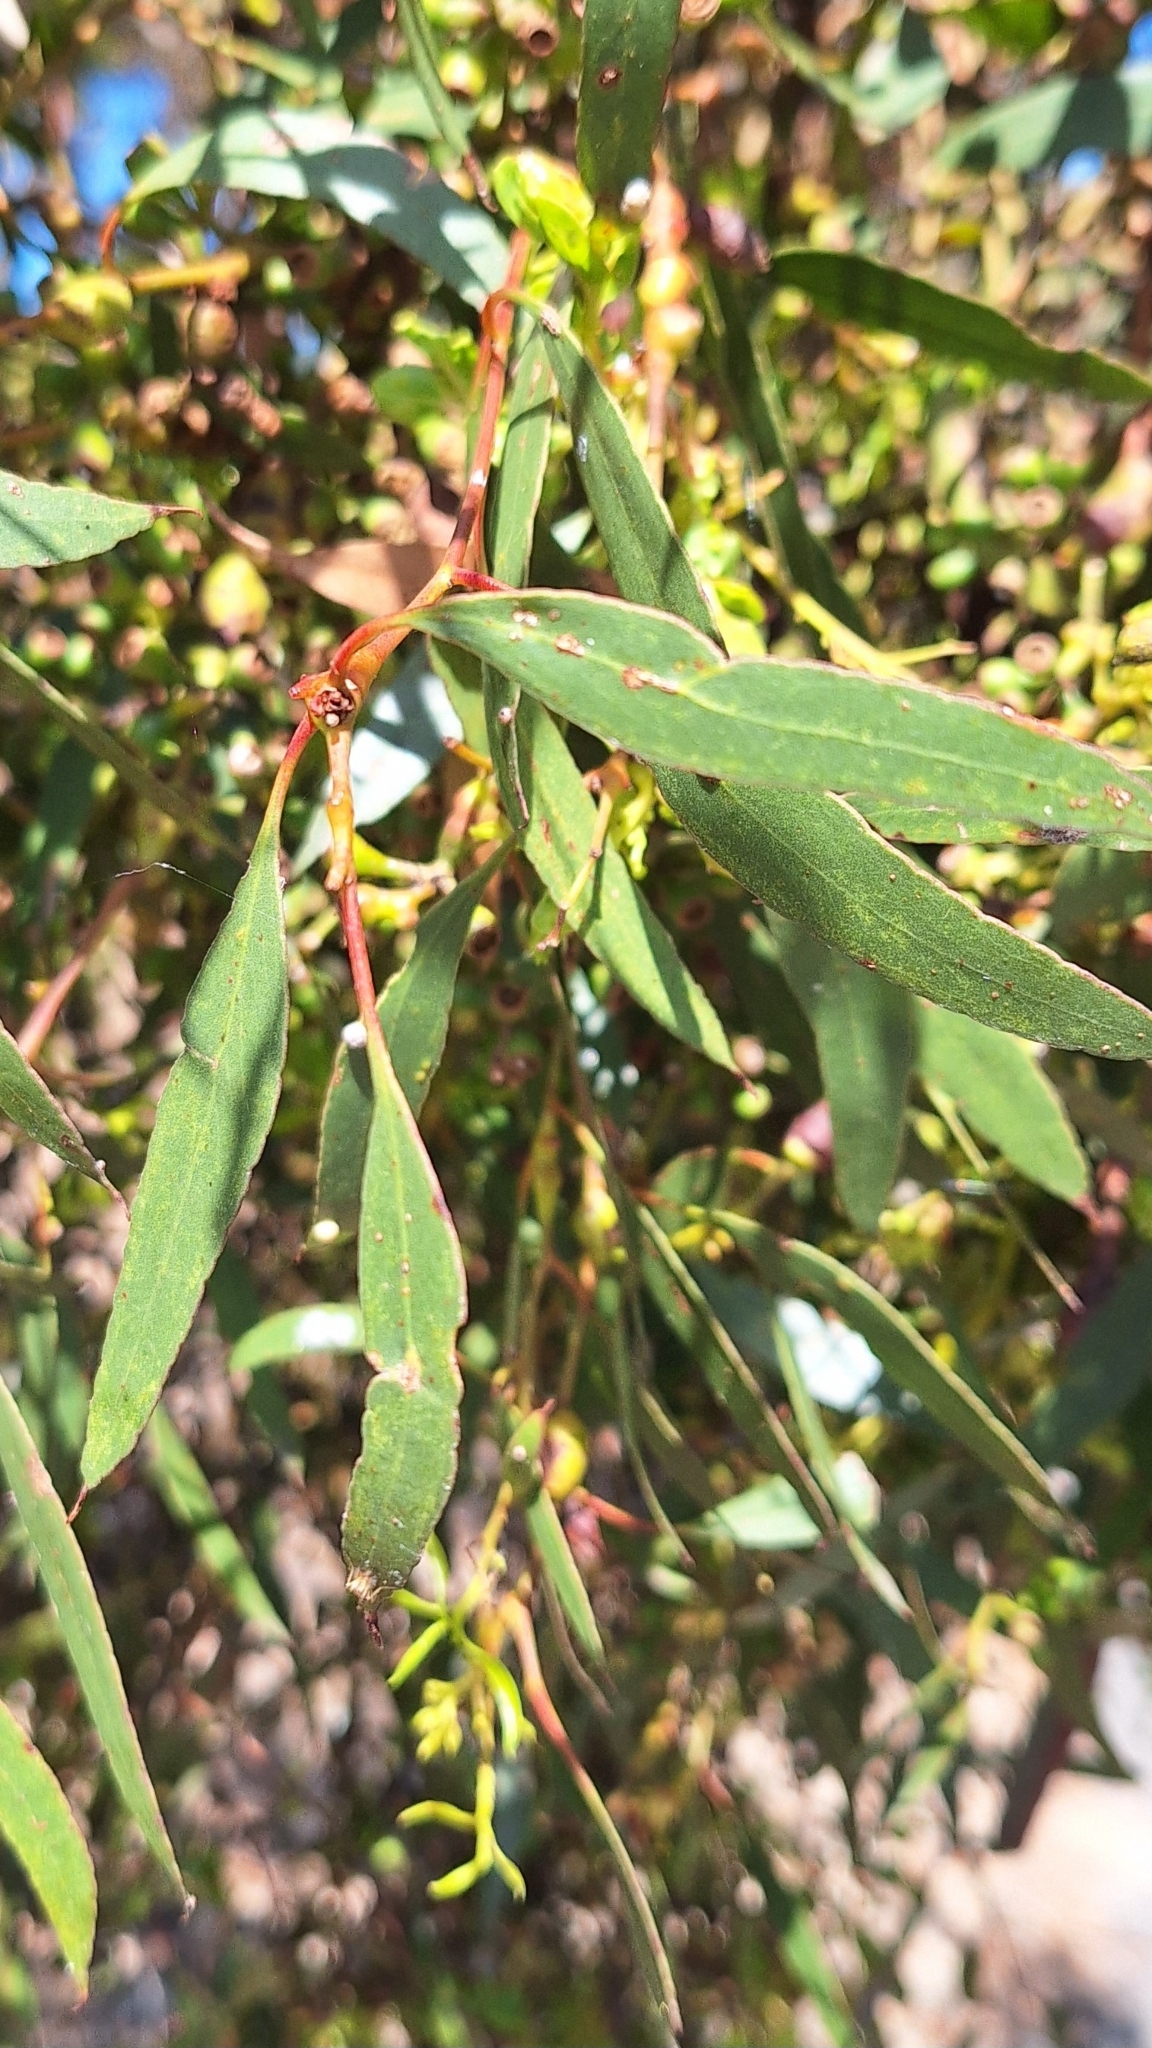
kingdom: Plantae
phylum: Tracheophyta
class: Magnoliopsida
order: Myrtales
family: Myrtaceae
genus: Eucalyptus
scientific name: Eucalyptus porosa
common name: Quorn mallee
